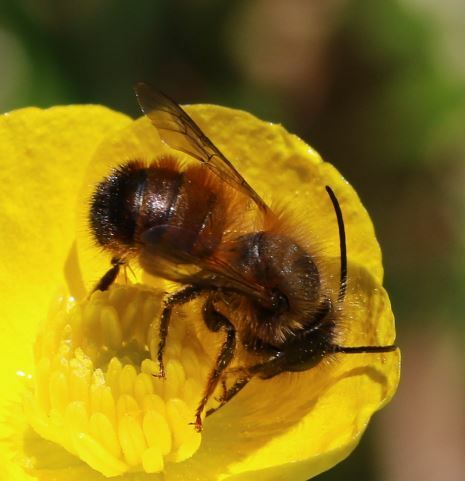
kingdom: Animalia
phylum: Arthropoda
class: Insecta
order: Hymenoptera
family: Megachilidae
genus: Osmia
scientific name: Osmia bicornis
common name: Red mason bee
